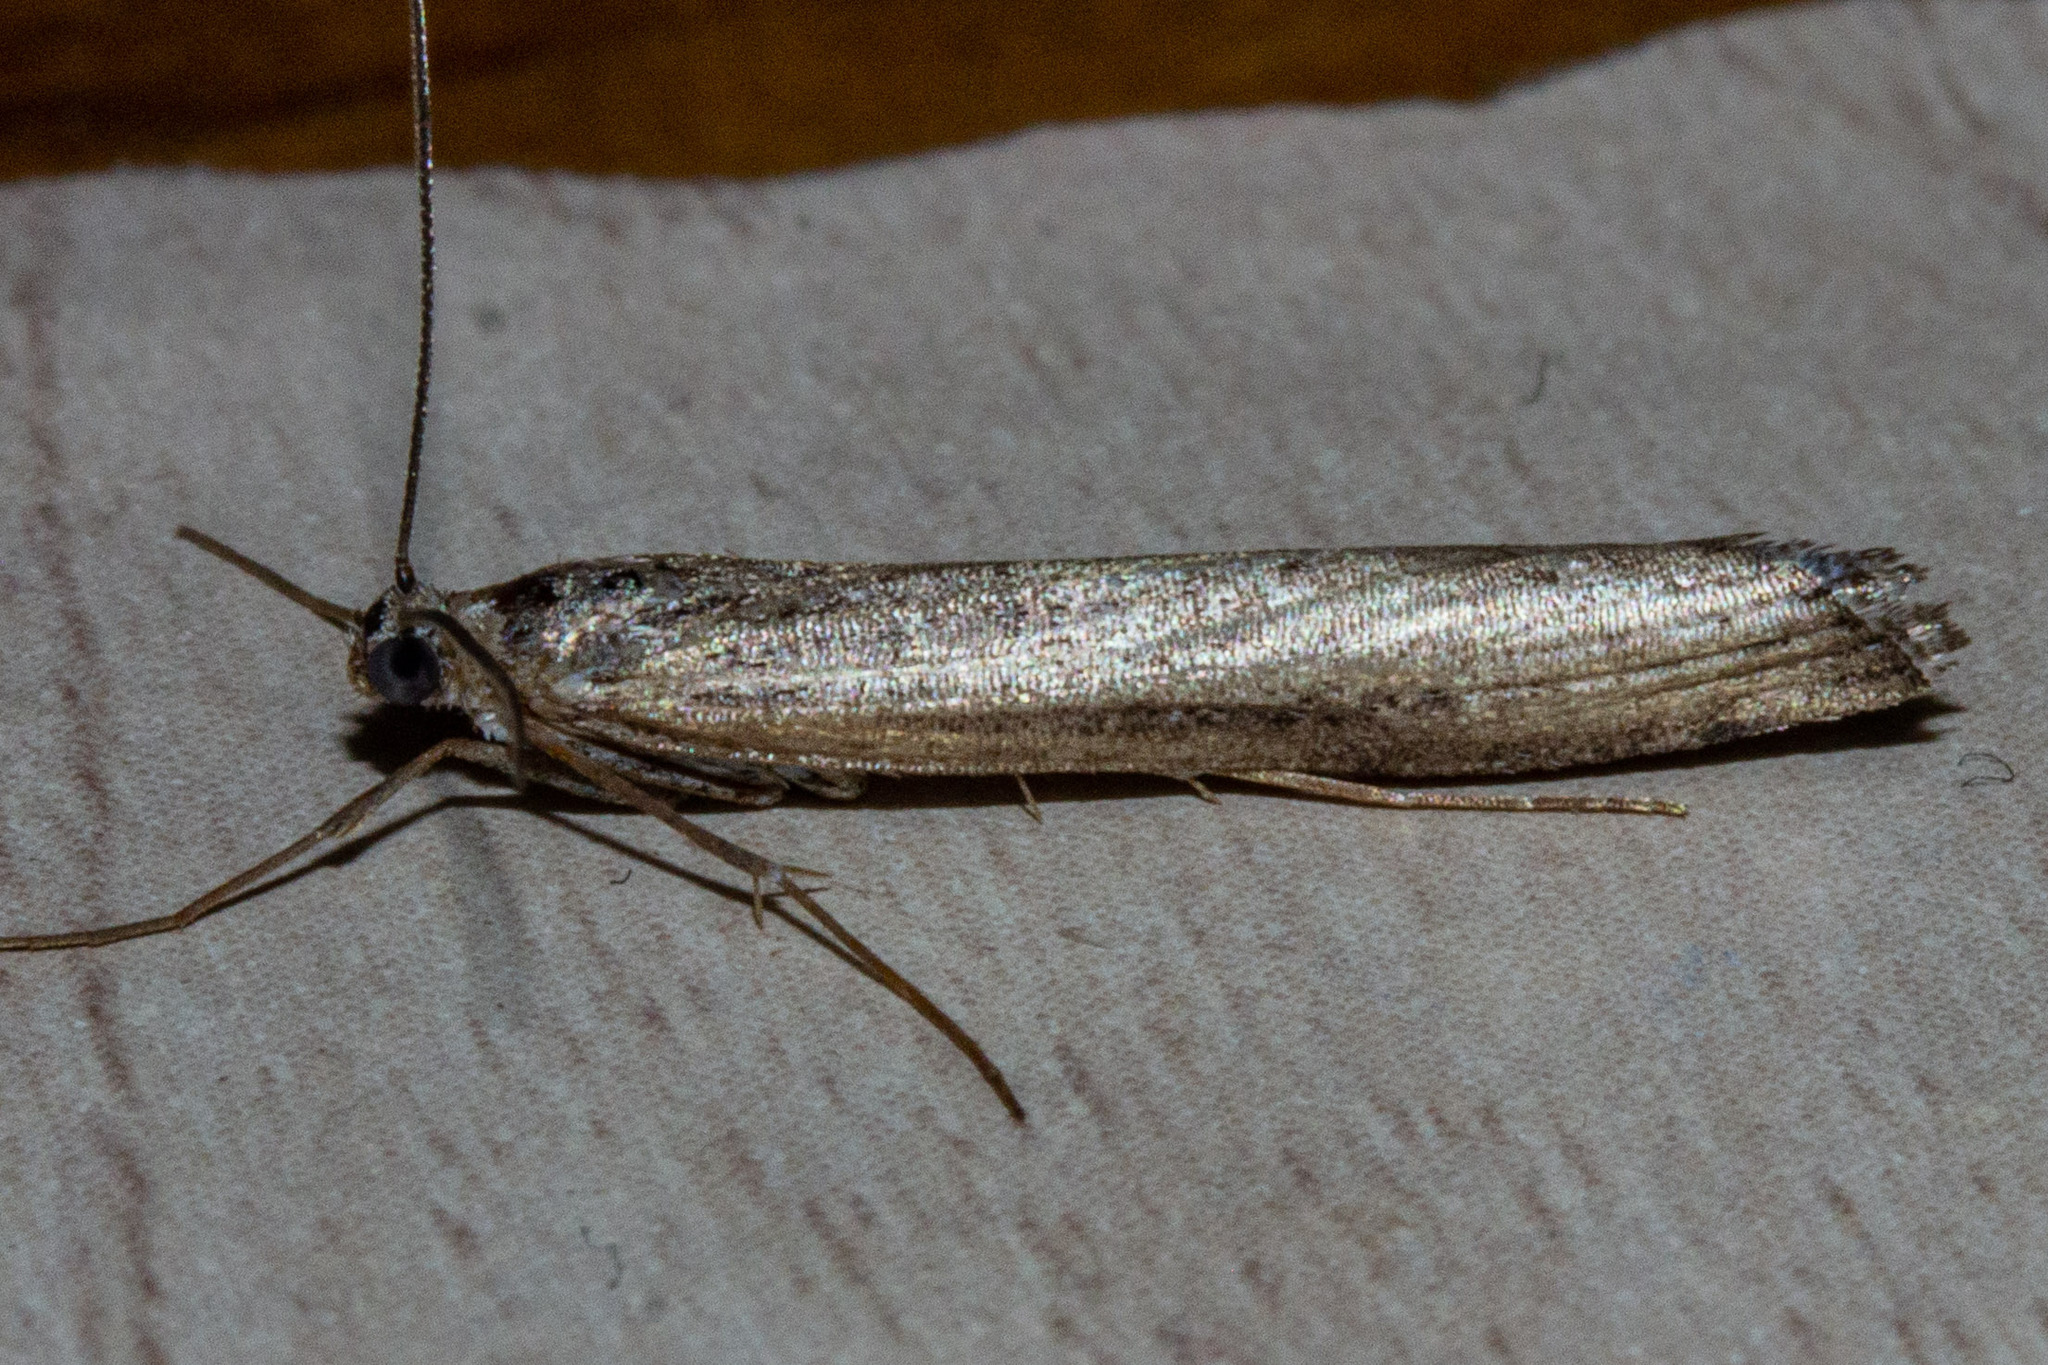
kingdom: Animalia
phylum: Arthropoda
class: Insecta
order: Lepidoptera
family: Crambidae
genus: Orocrambus
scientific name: Orocrambus cyclopicus
